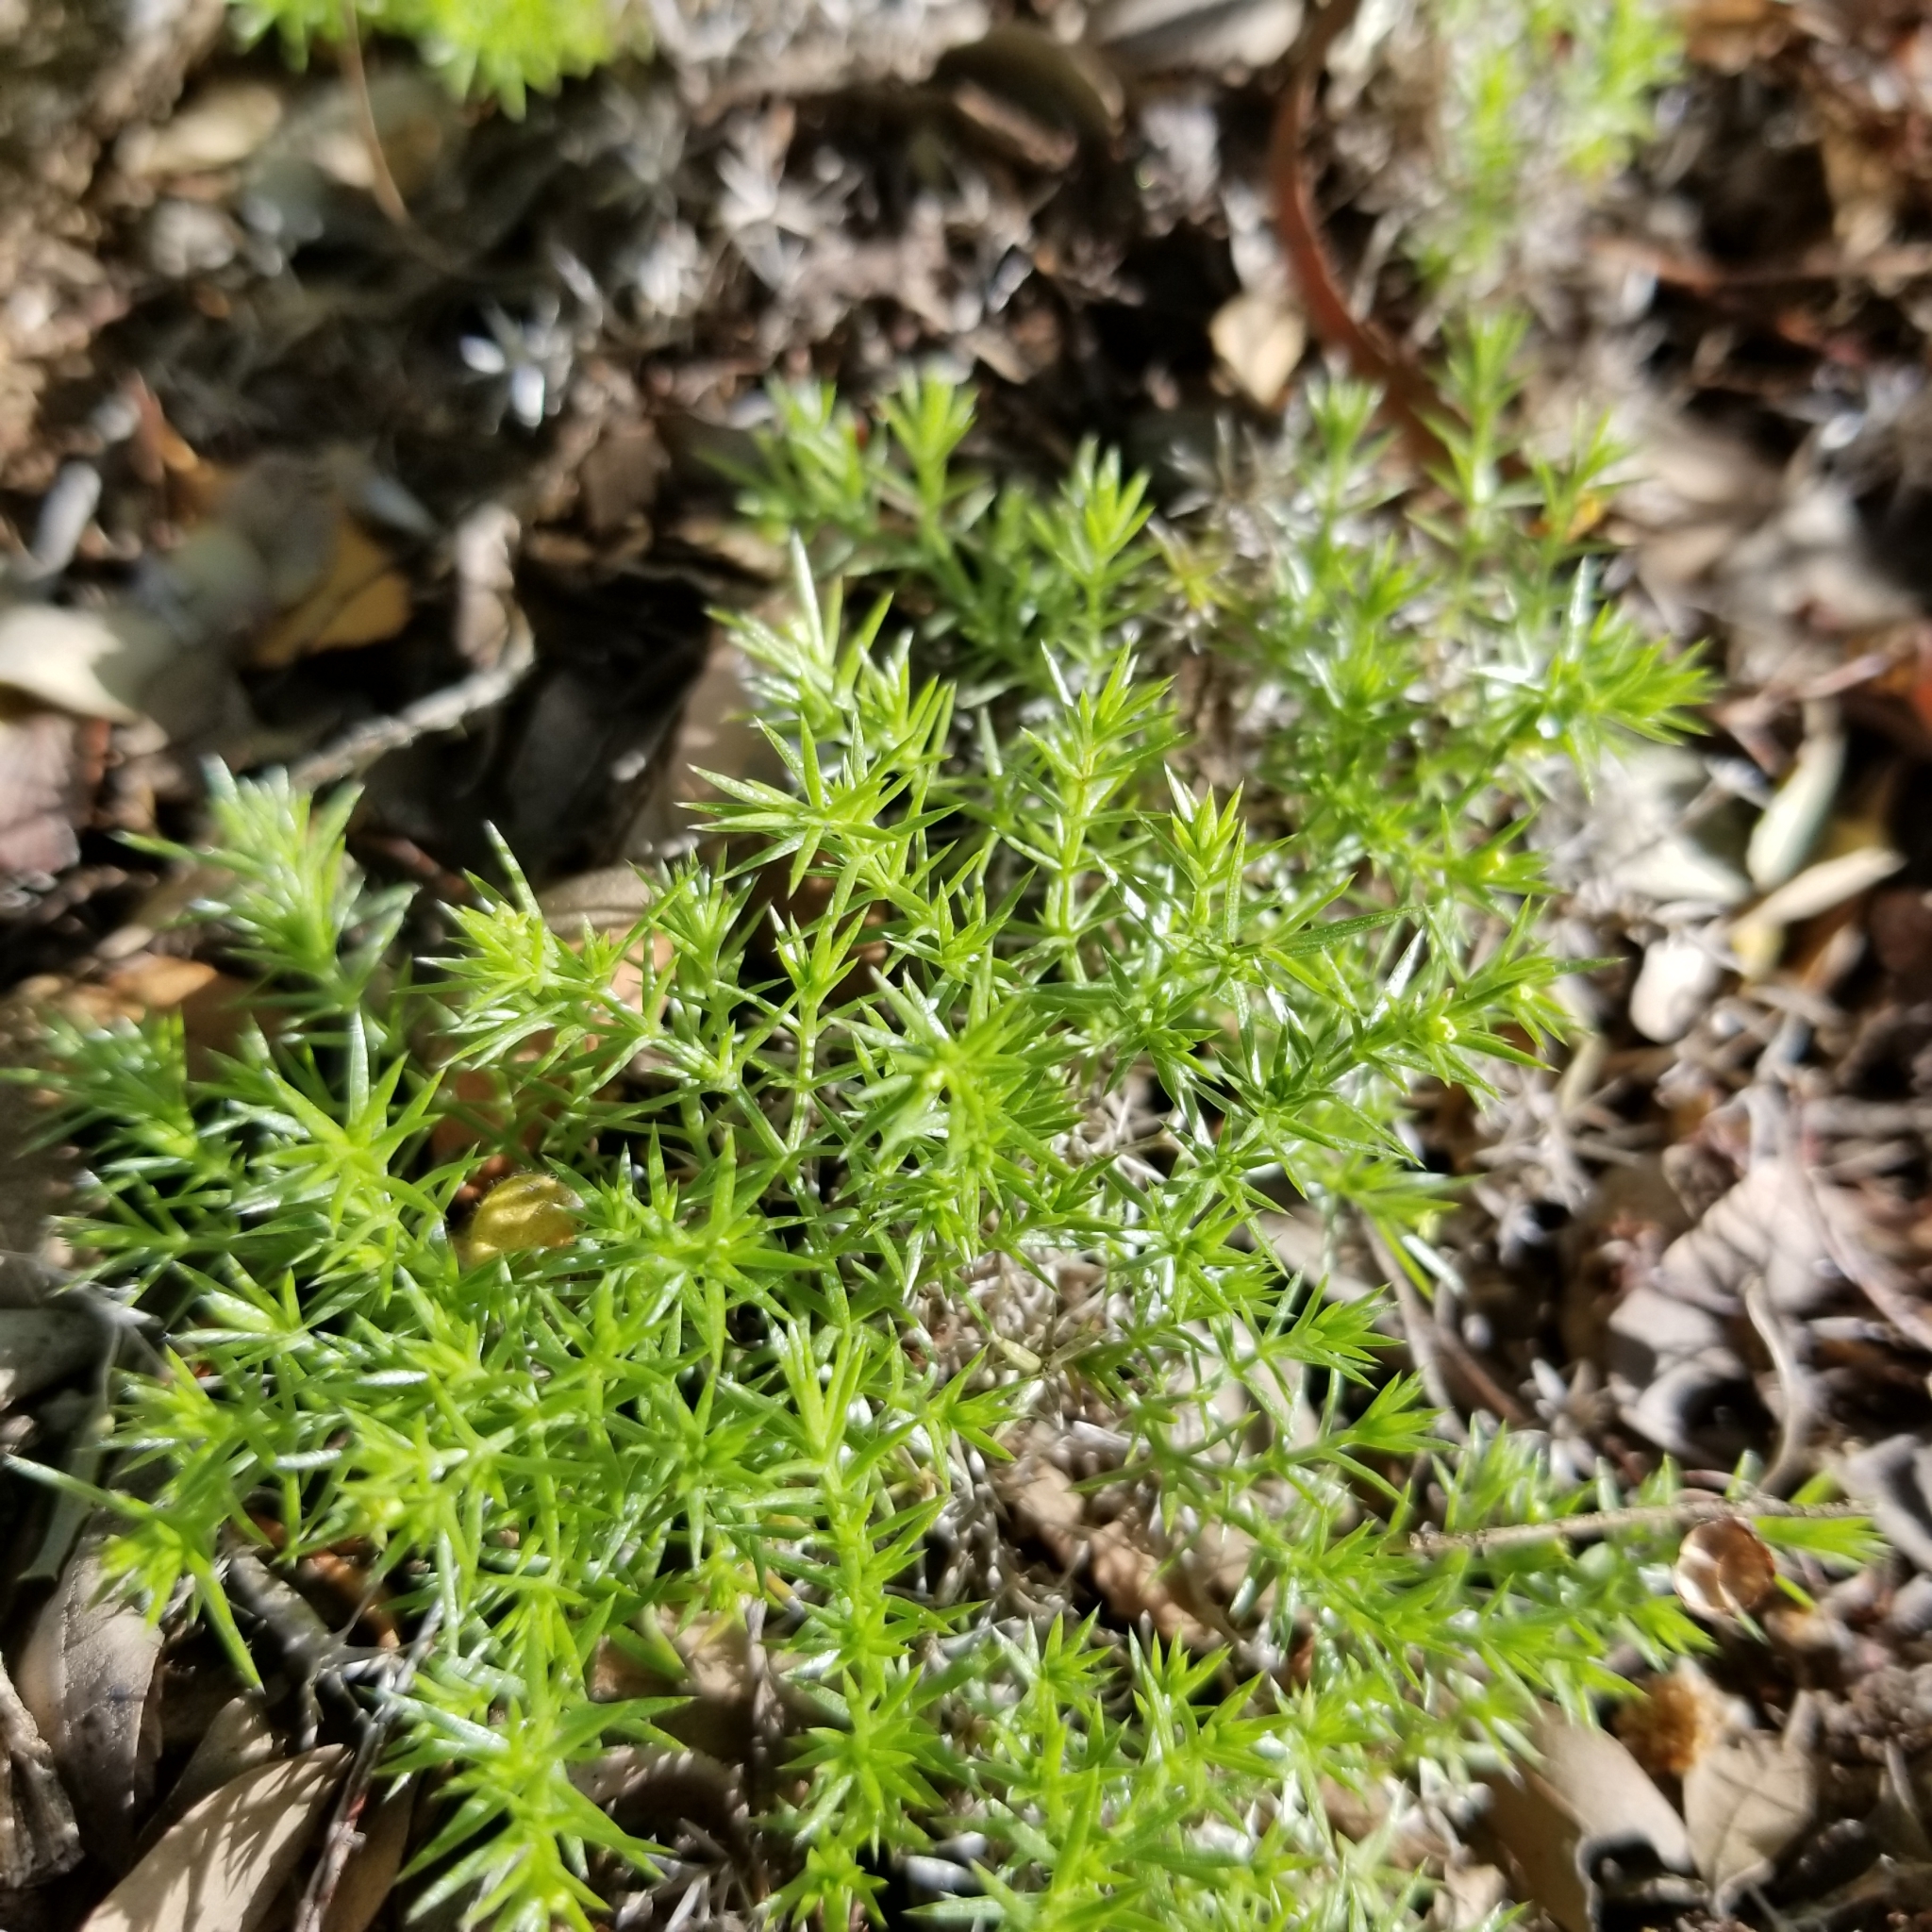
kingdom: Plantae
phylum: Tracheophyta
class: Magnoliopsida
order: Gentianales
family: Rubiaceae
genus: Galium
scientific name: Galium andrewsii
